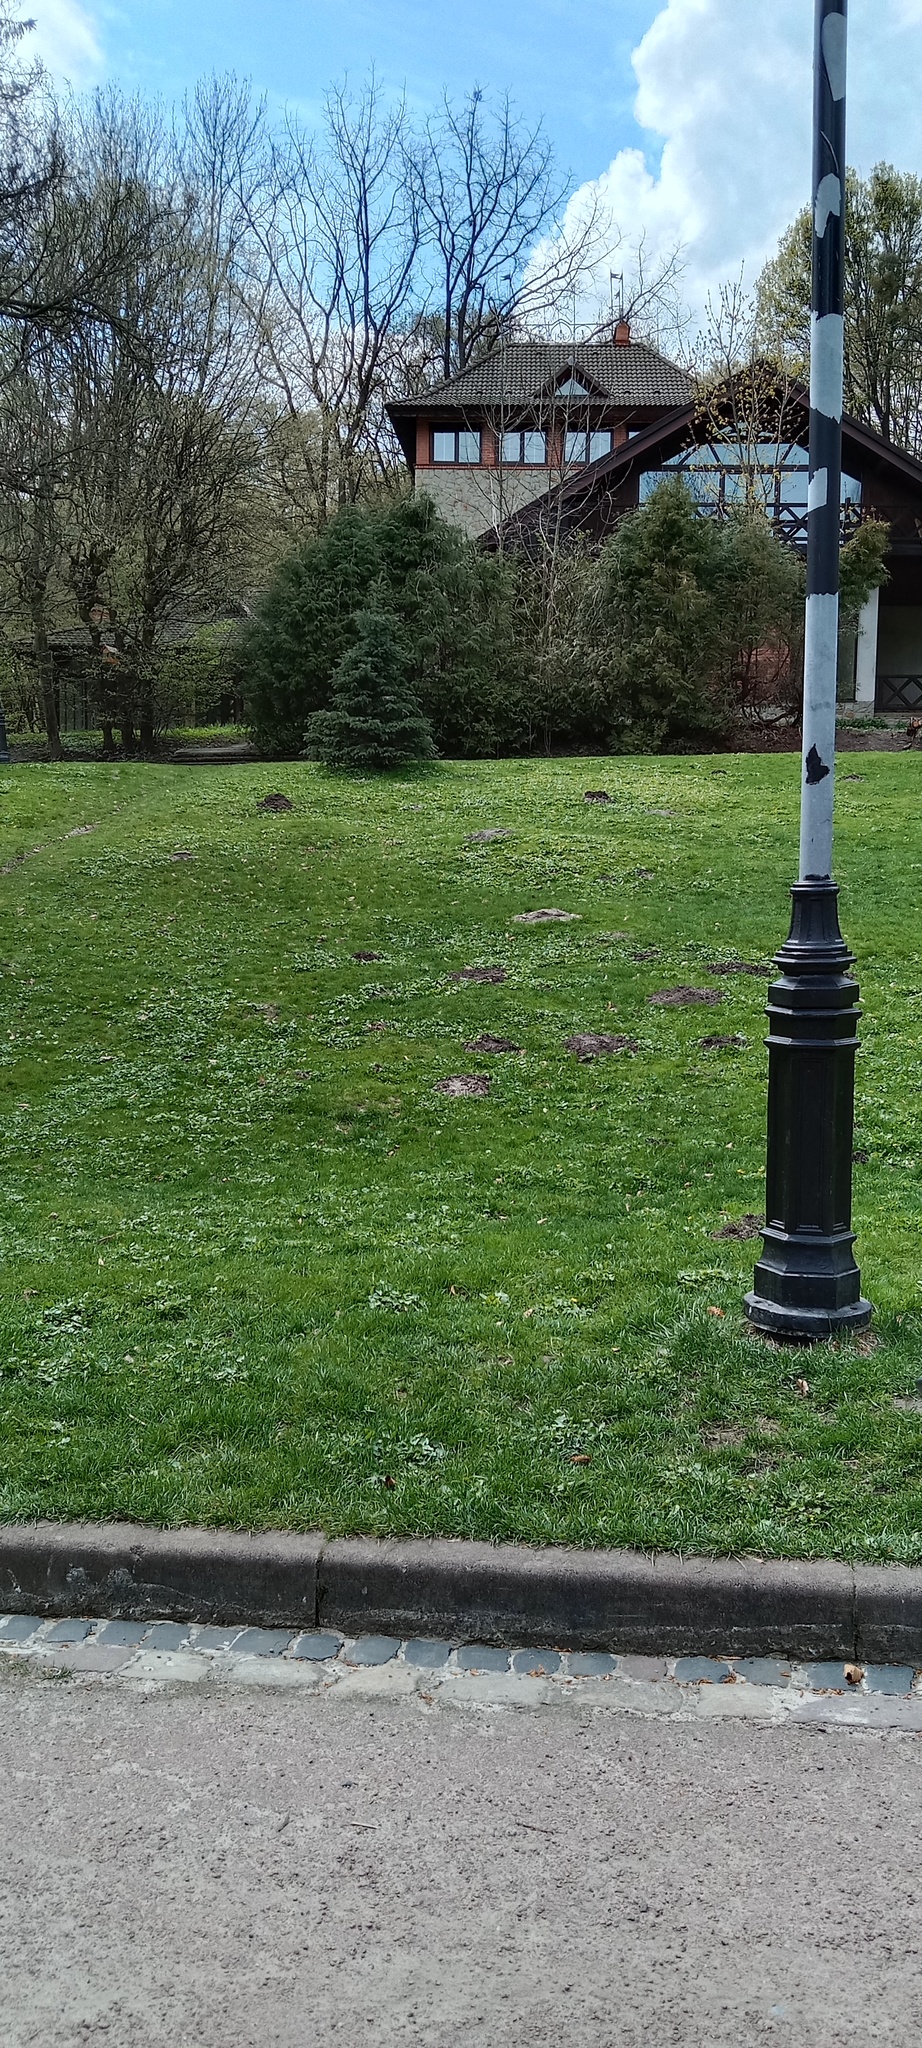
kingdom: Animalia
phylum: Chordata
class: Mammalia
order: Soricomorpha
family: Talpidae
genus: Talpa
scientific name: Talpa europaea
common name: European mole
